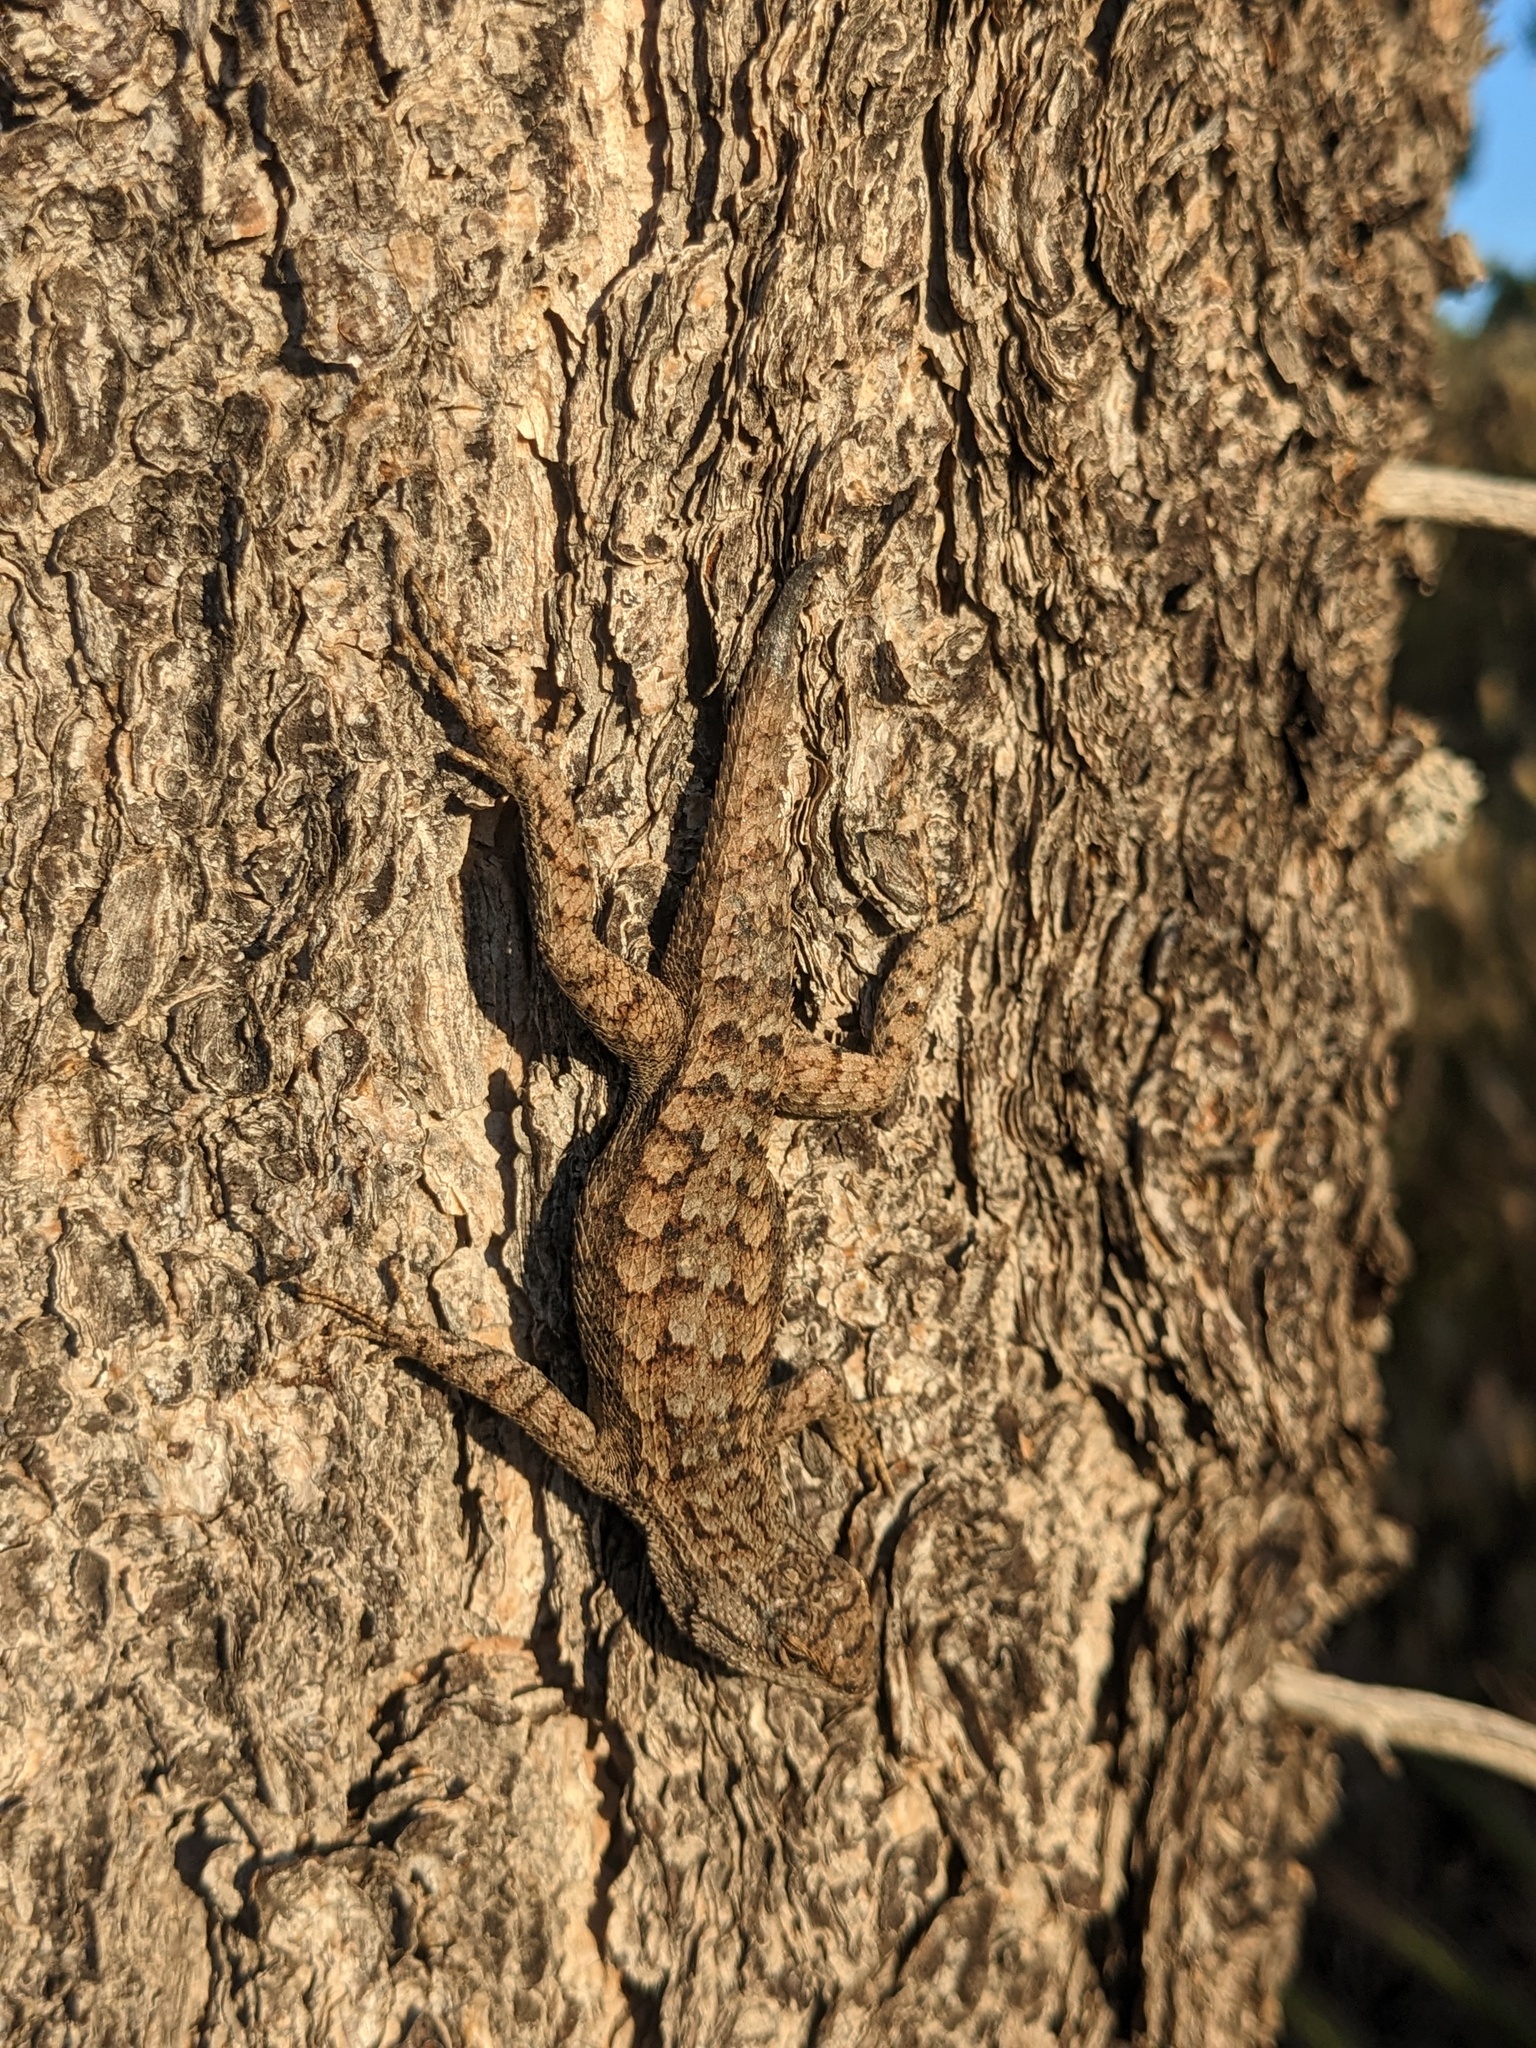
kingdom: Animalia
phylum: Chordata
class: Squamata
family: Phrynosomatidae
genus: Sceloporus
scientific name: Sceloporus tristichus
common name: Plateau fence lizard
